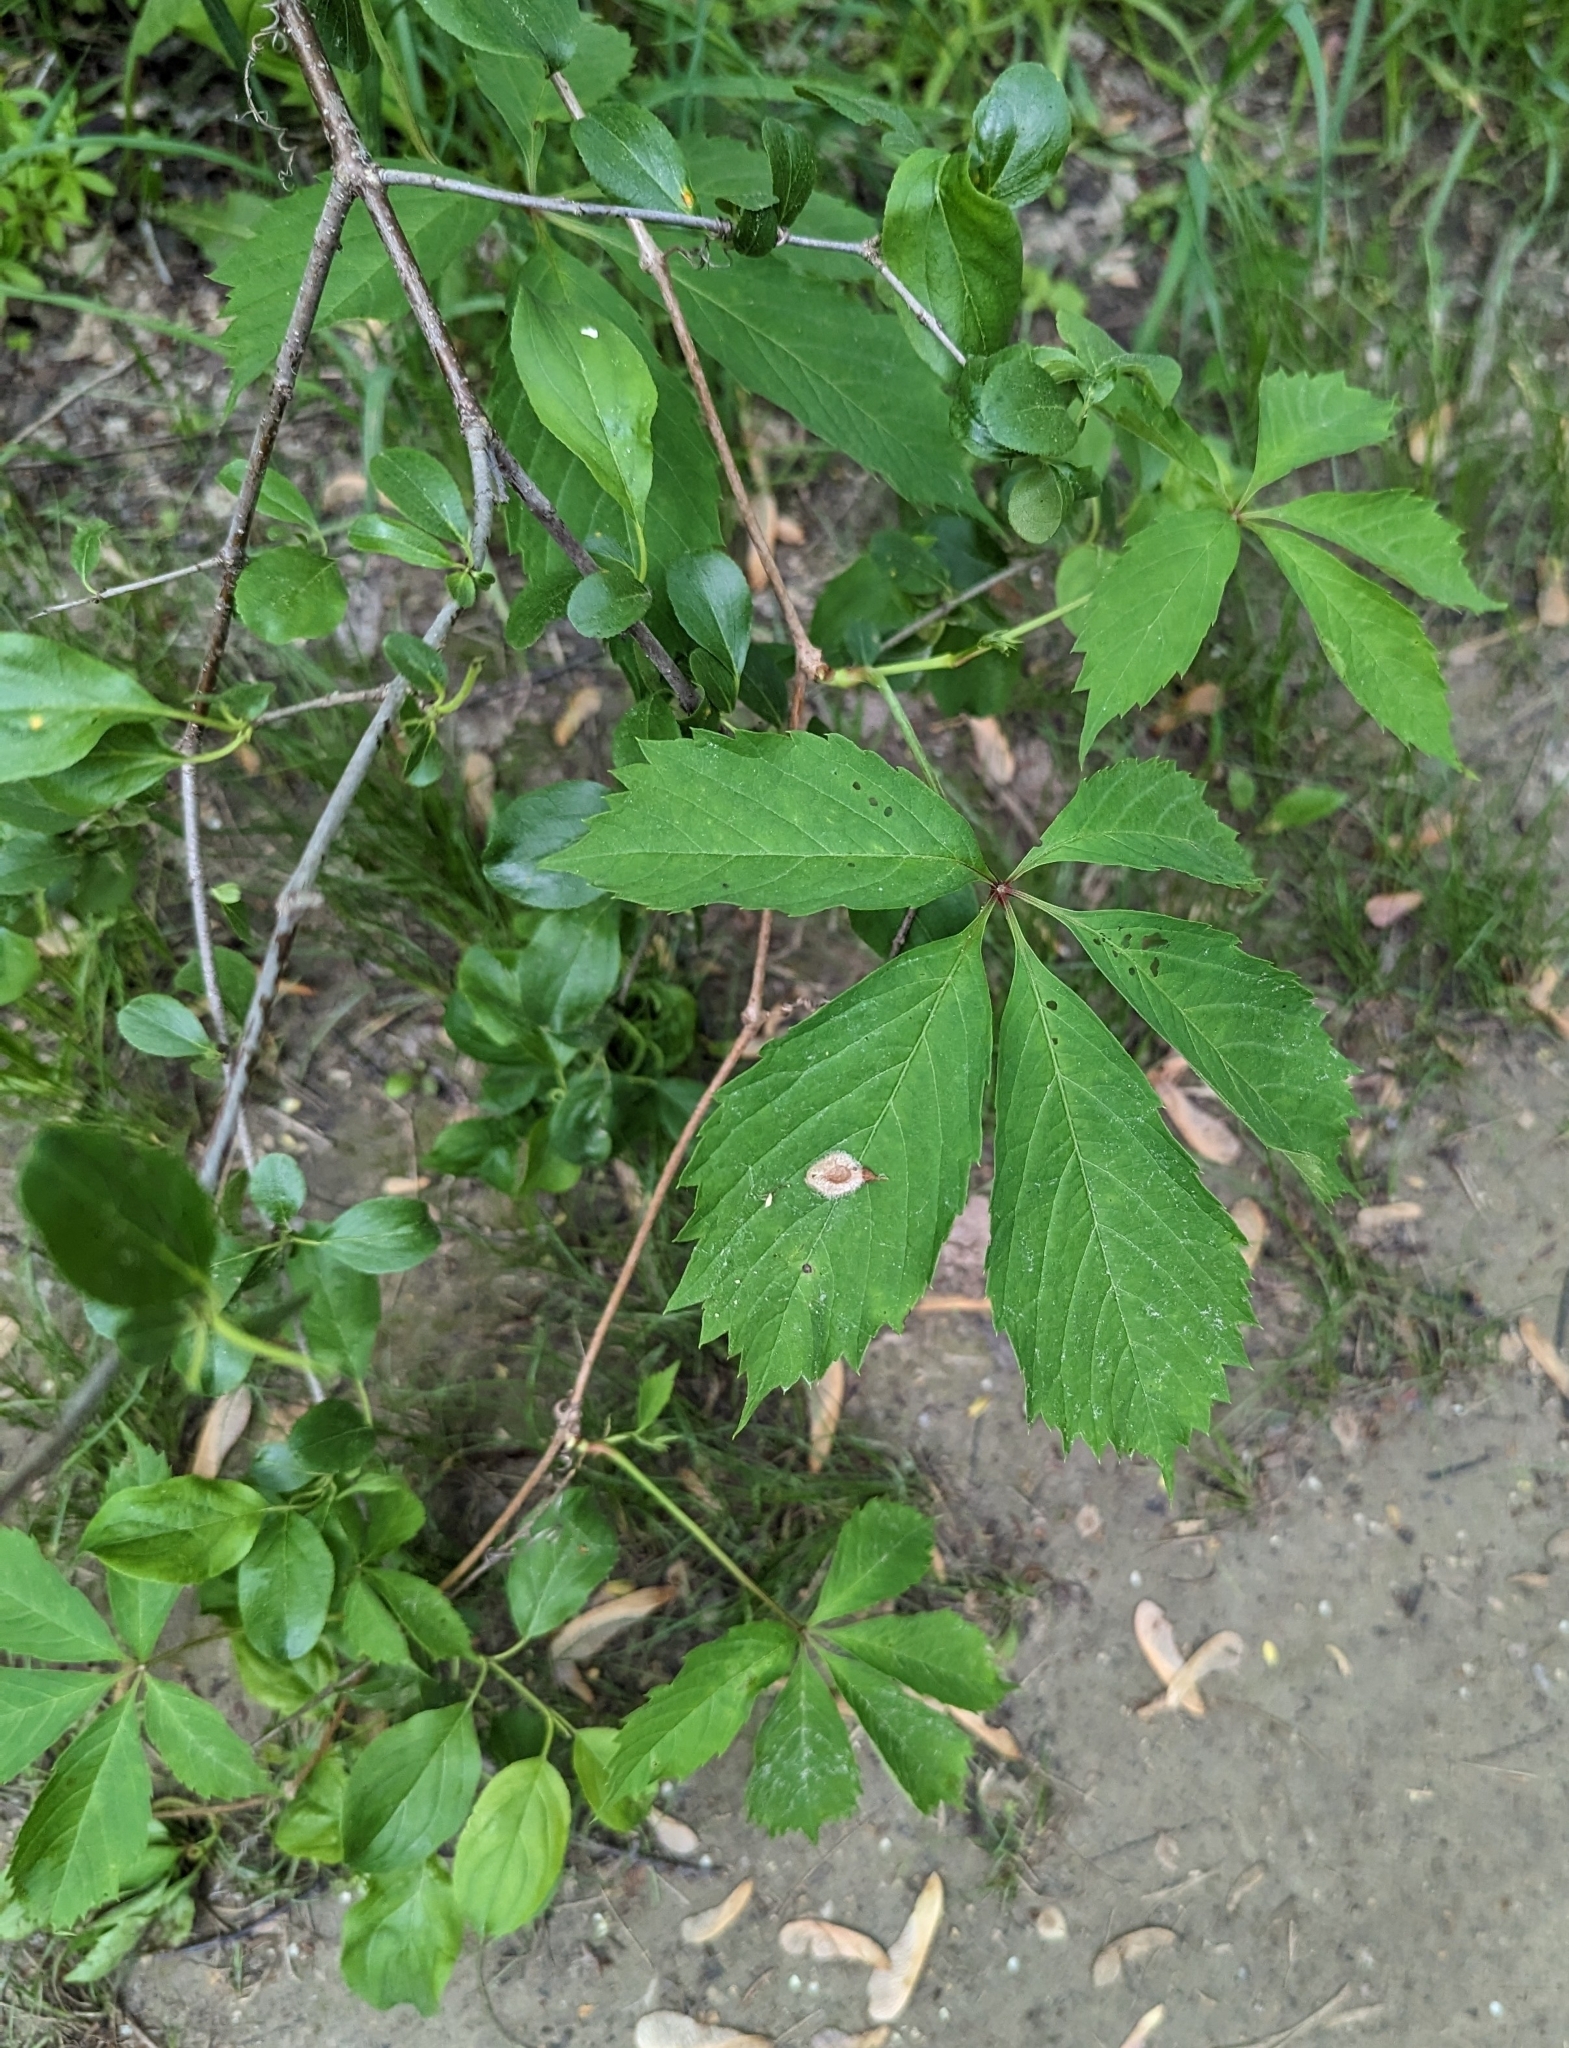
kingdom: Plantae
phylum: Tracheophyta
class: Magnoliopsida
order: Vitales
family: Vitaceae
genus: Parthenocissus
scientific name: Parthenocissus quinquefolia
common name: Virginia-creeper
